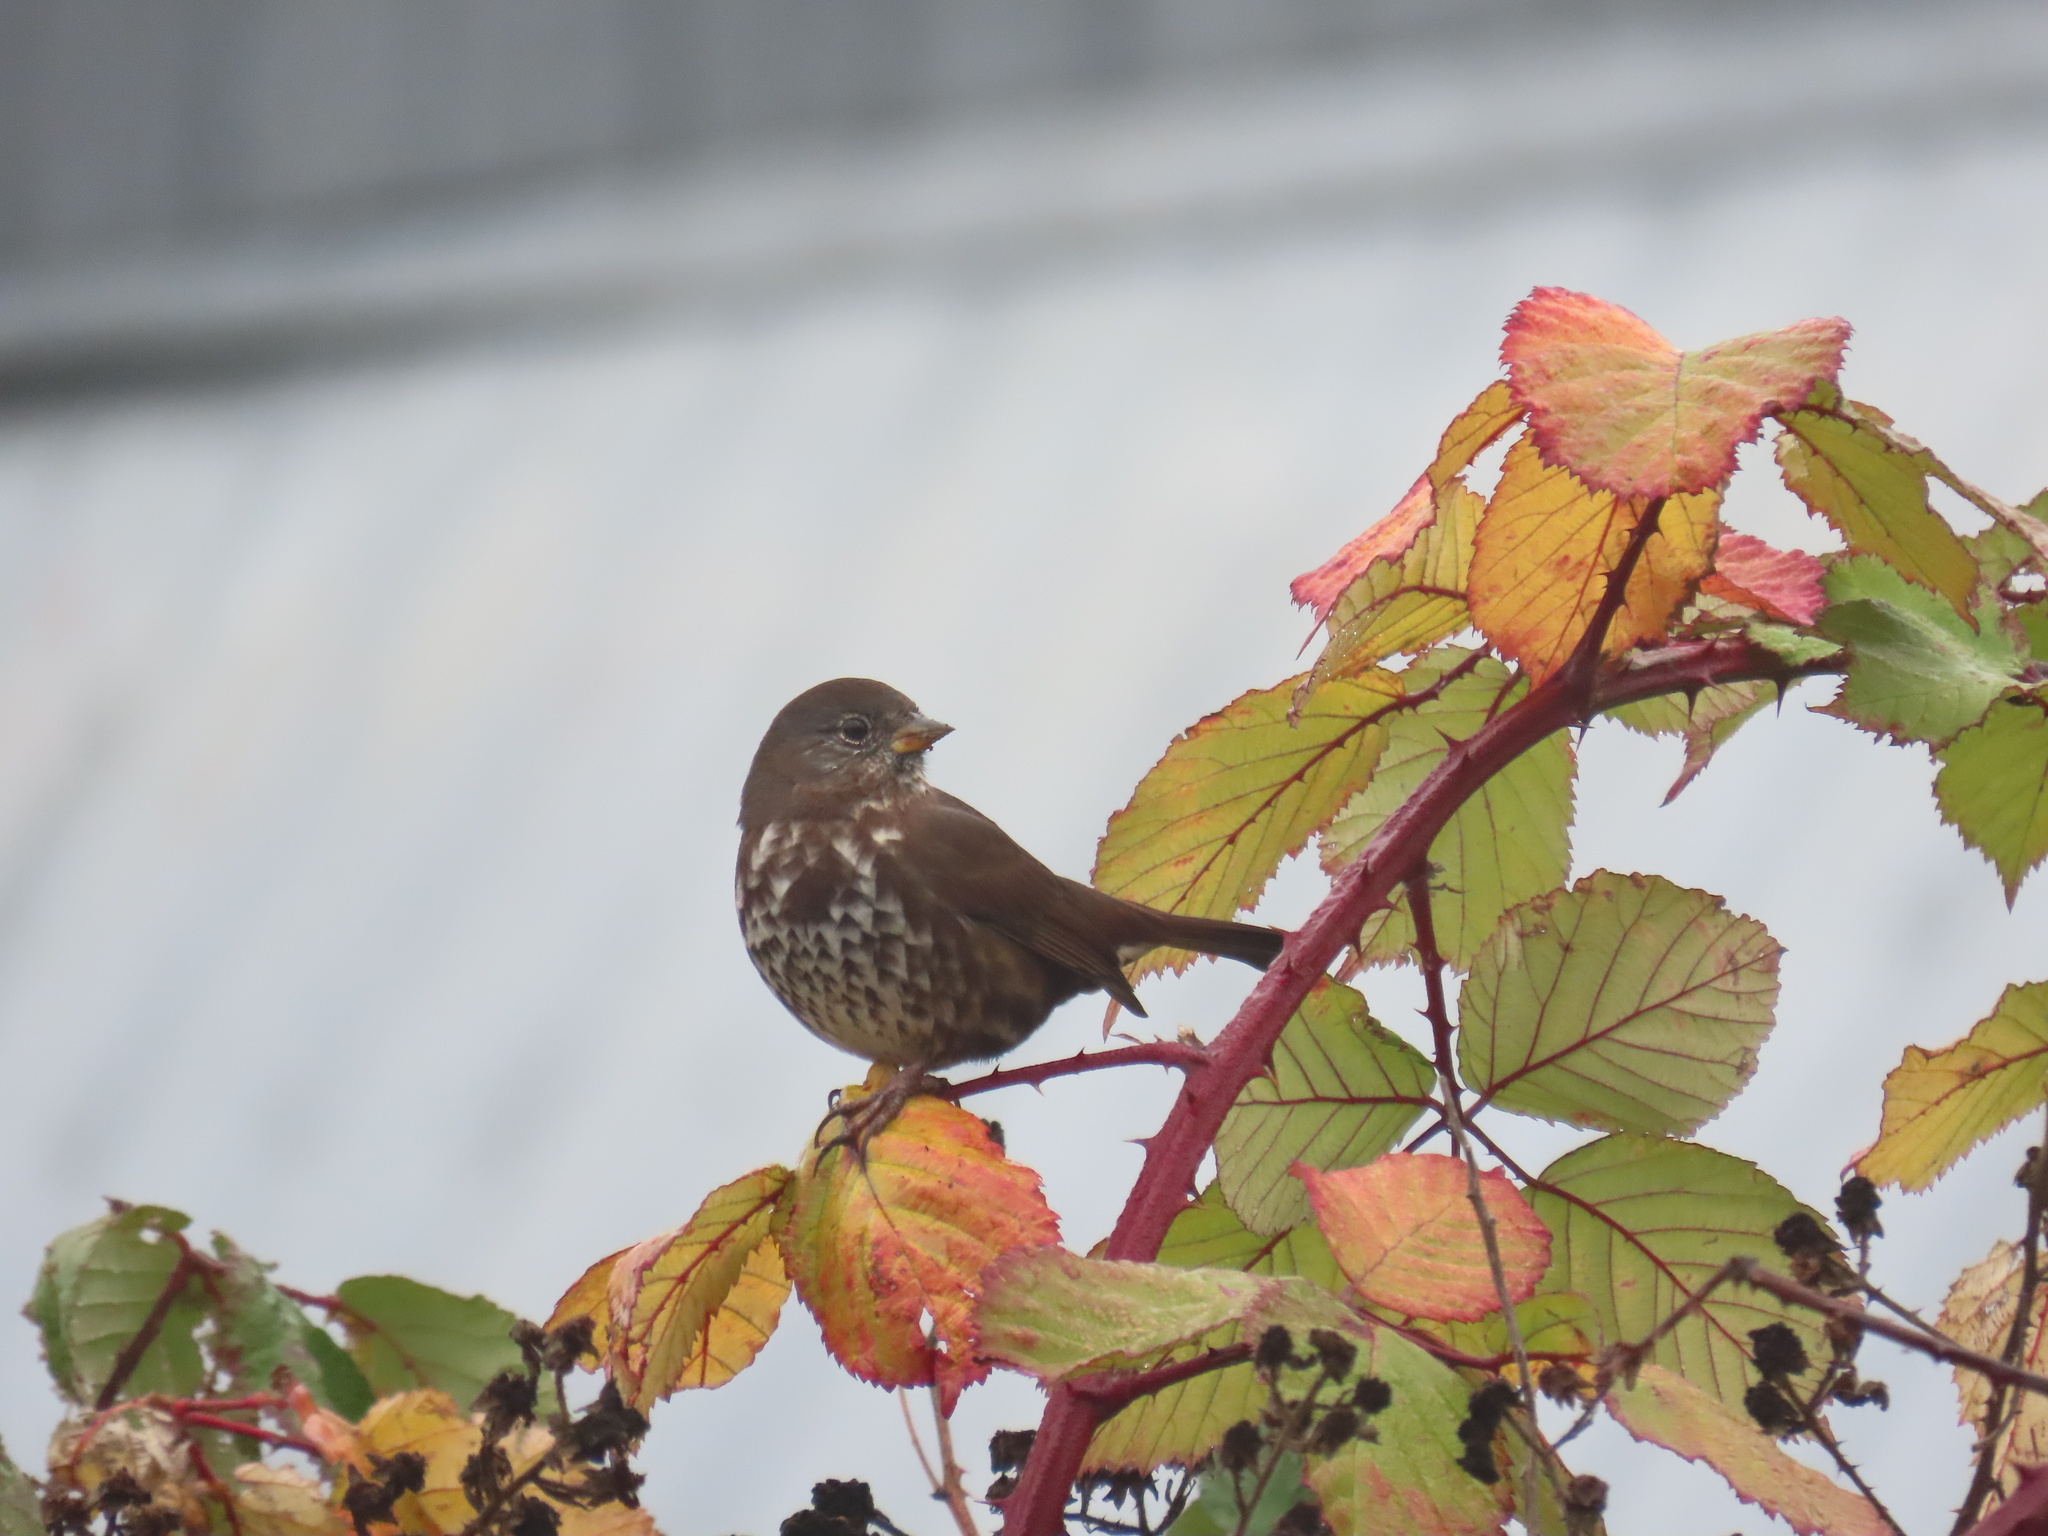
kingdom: Animalia
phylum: Chordata
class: Aves
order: Passeriformes
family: Passerellidae
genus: Passerella
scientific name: Passerella iliaca
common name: Fox sparrow
